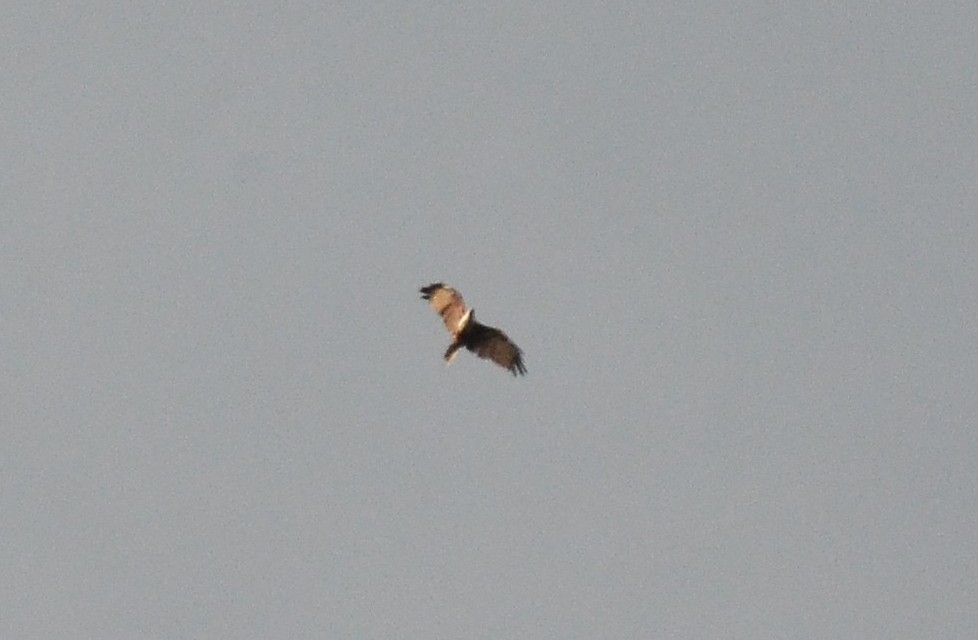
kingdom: Animalia
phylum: Chordata
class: Aves
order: Accipitriformes
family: Accipitridae
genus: Haliastur
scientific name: Haliastur indus
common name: Brahminy kite
